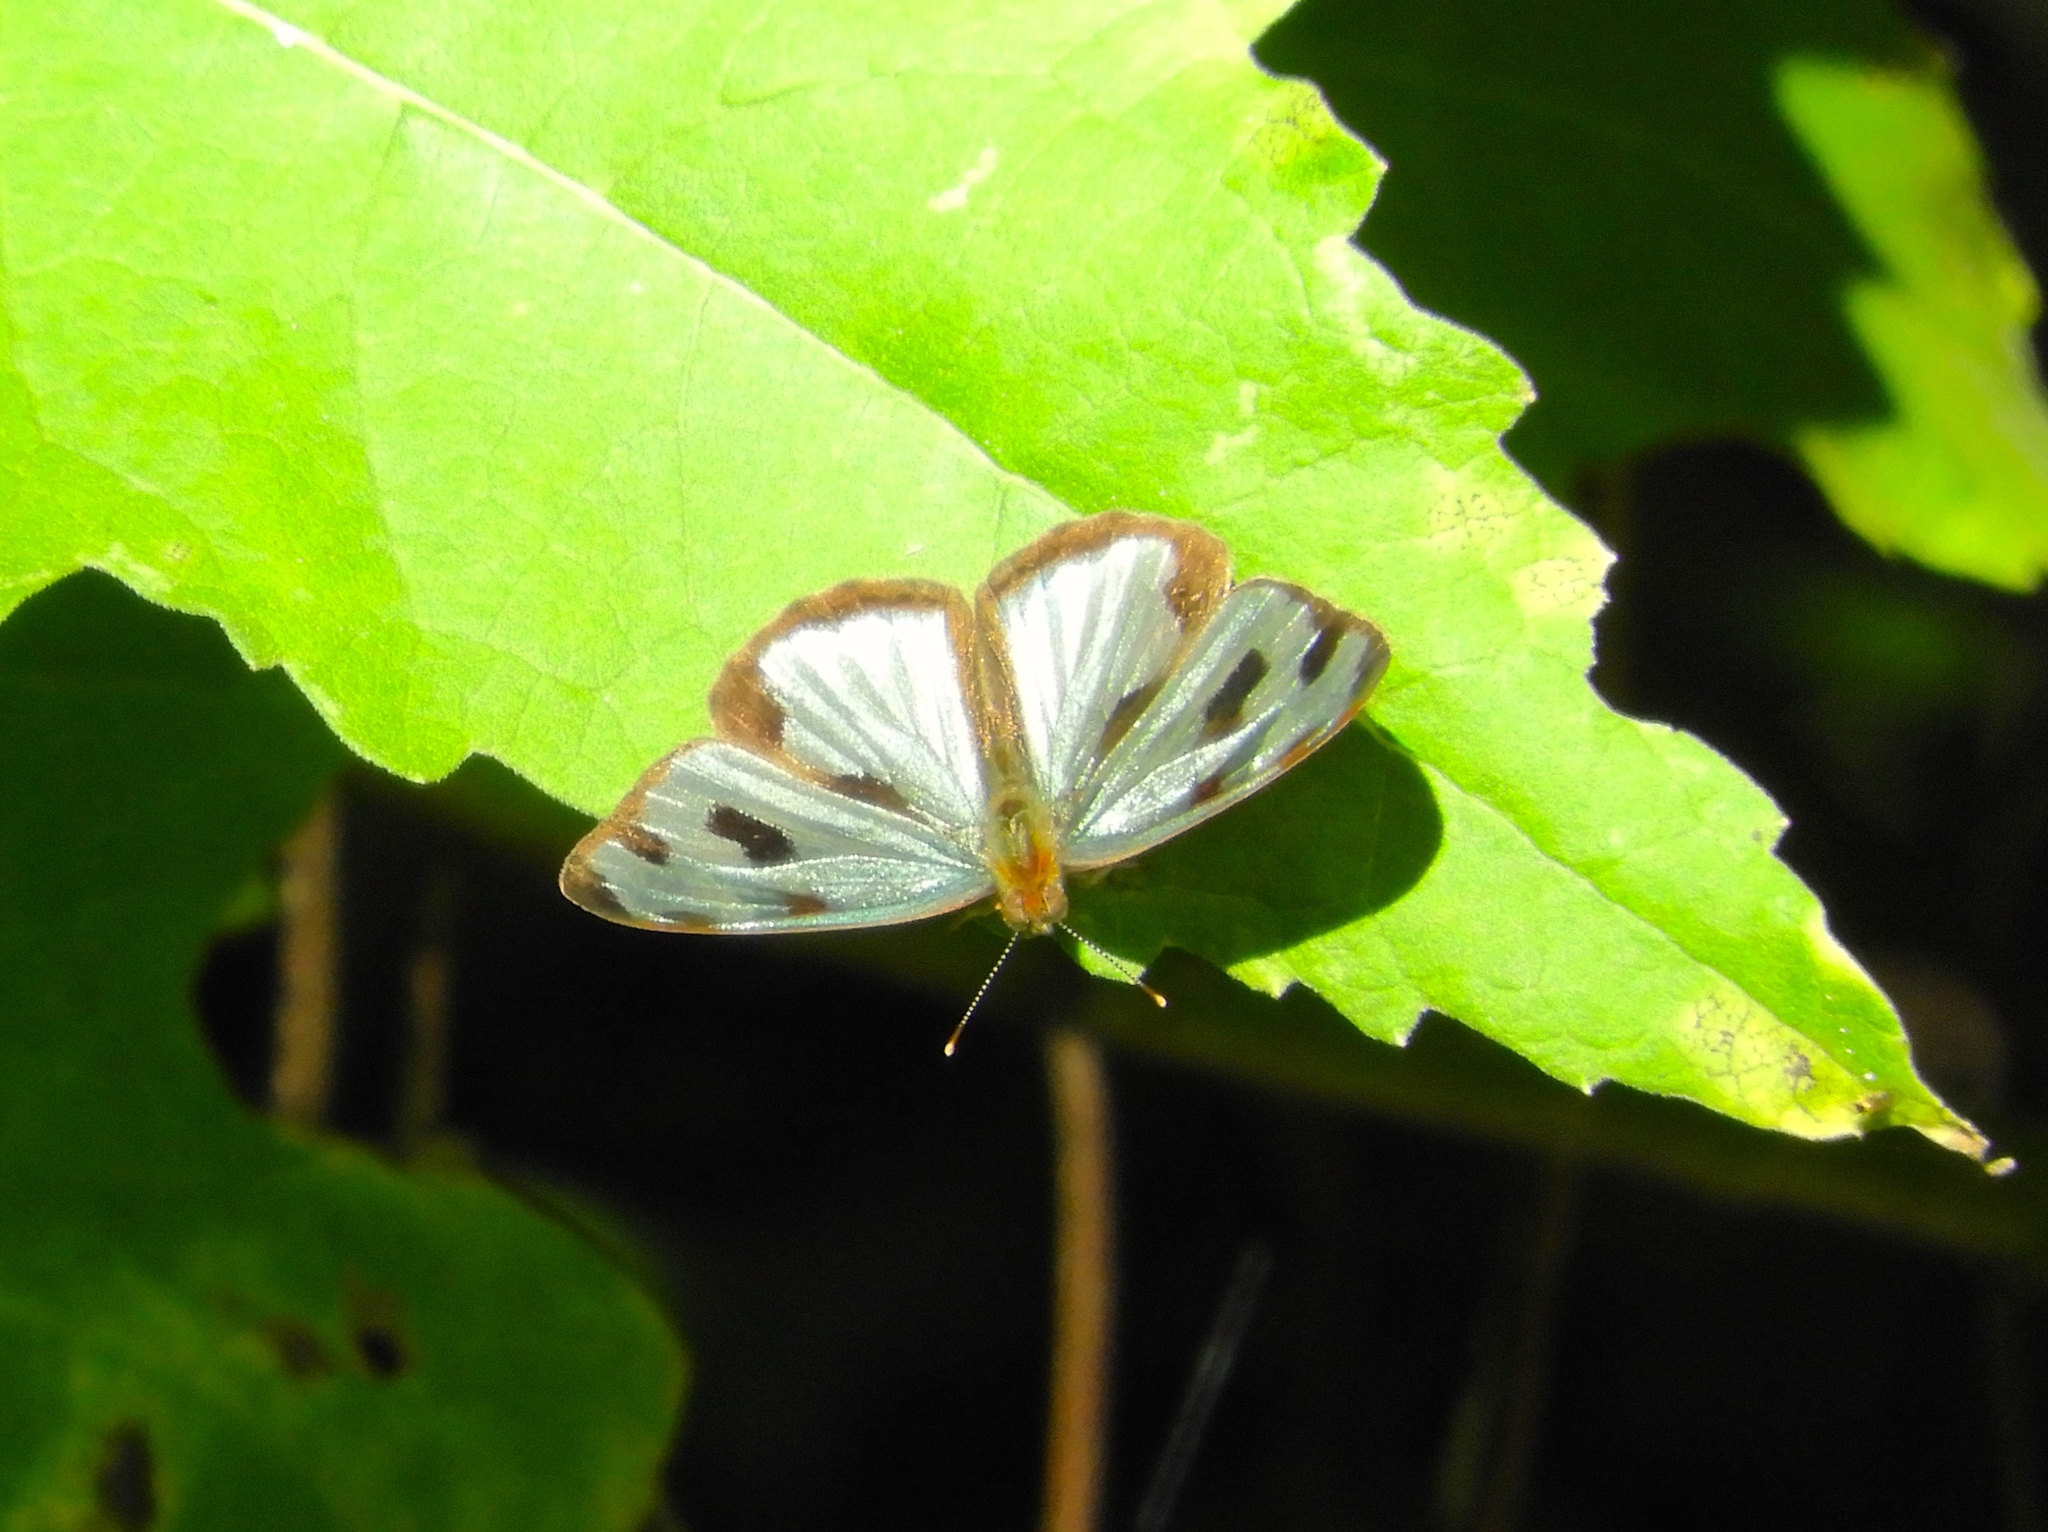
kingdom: Animalia
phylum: Arthropoda
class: Insecta
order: Lepidoptera
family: Nymphalidae
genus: Dynamine
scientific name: Dynamine mylitta
